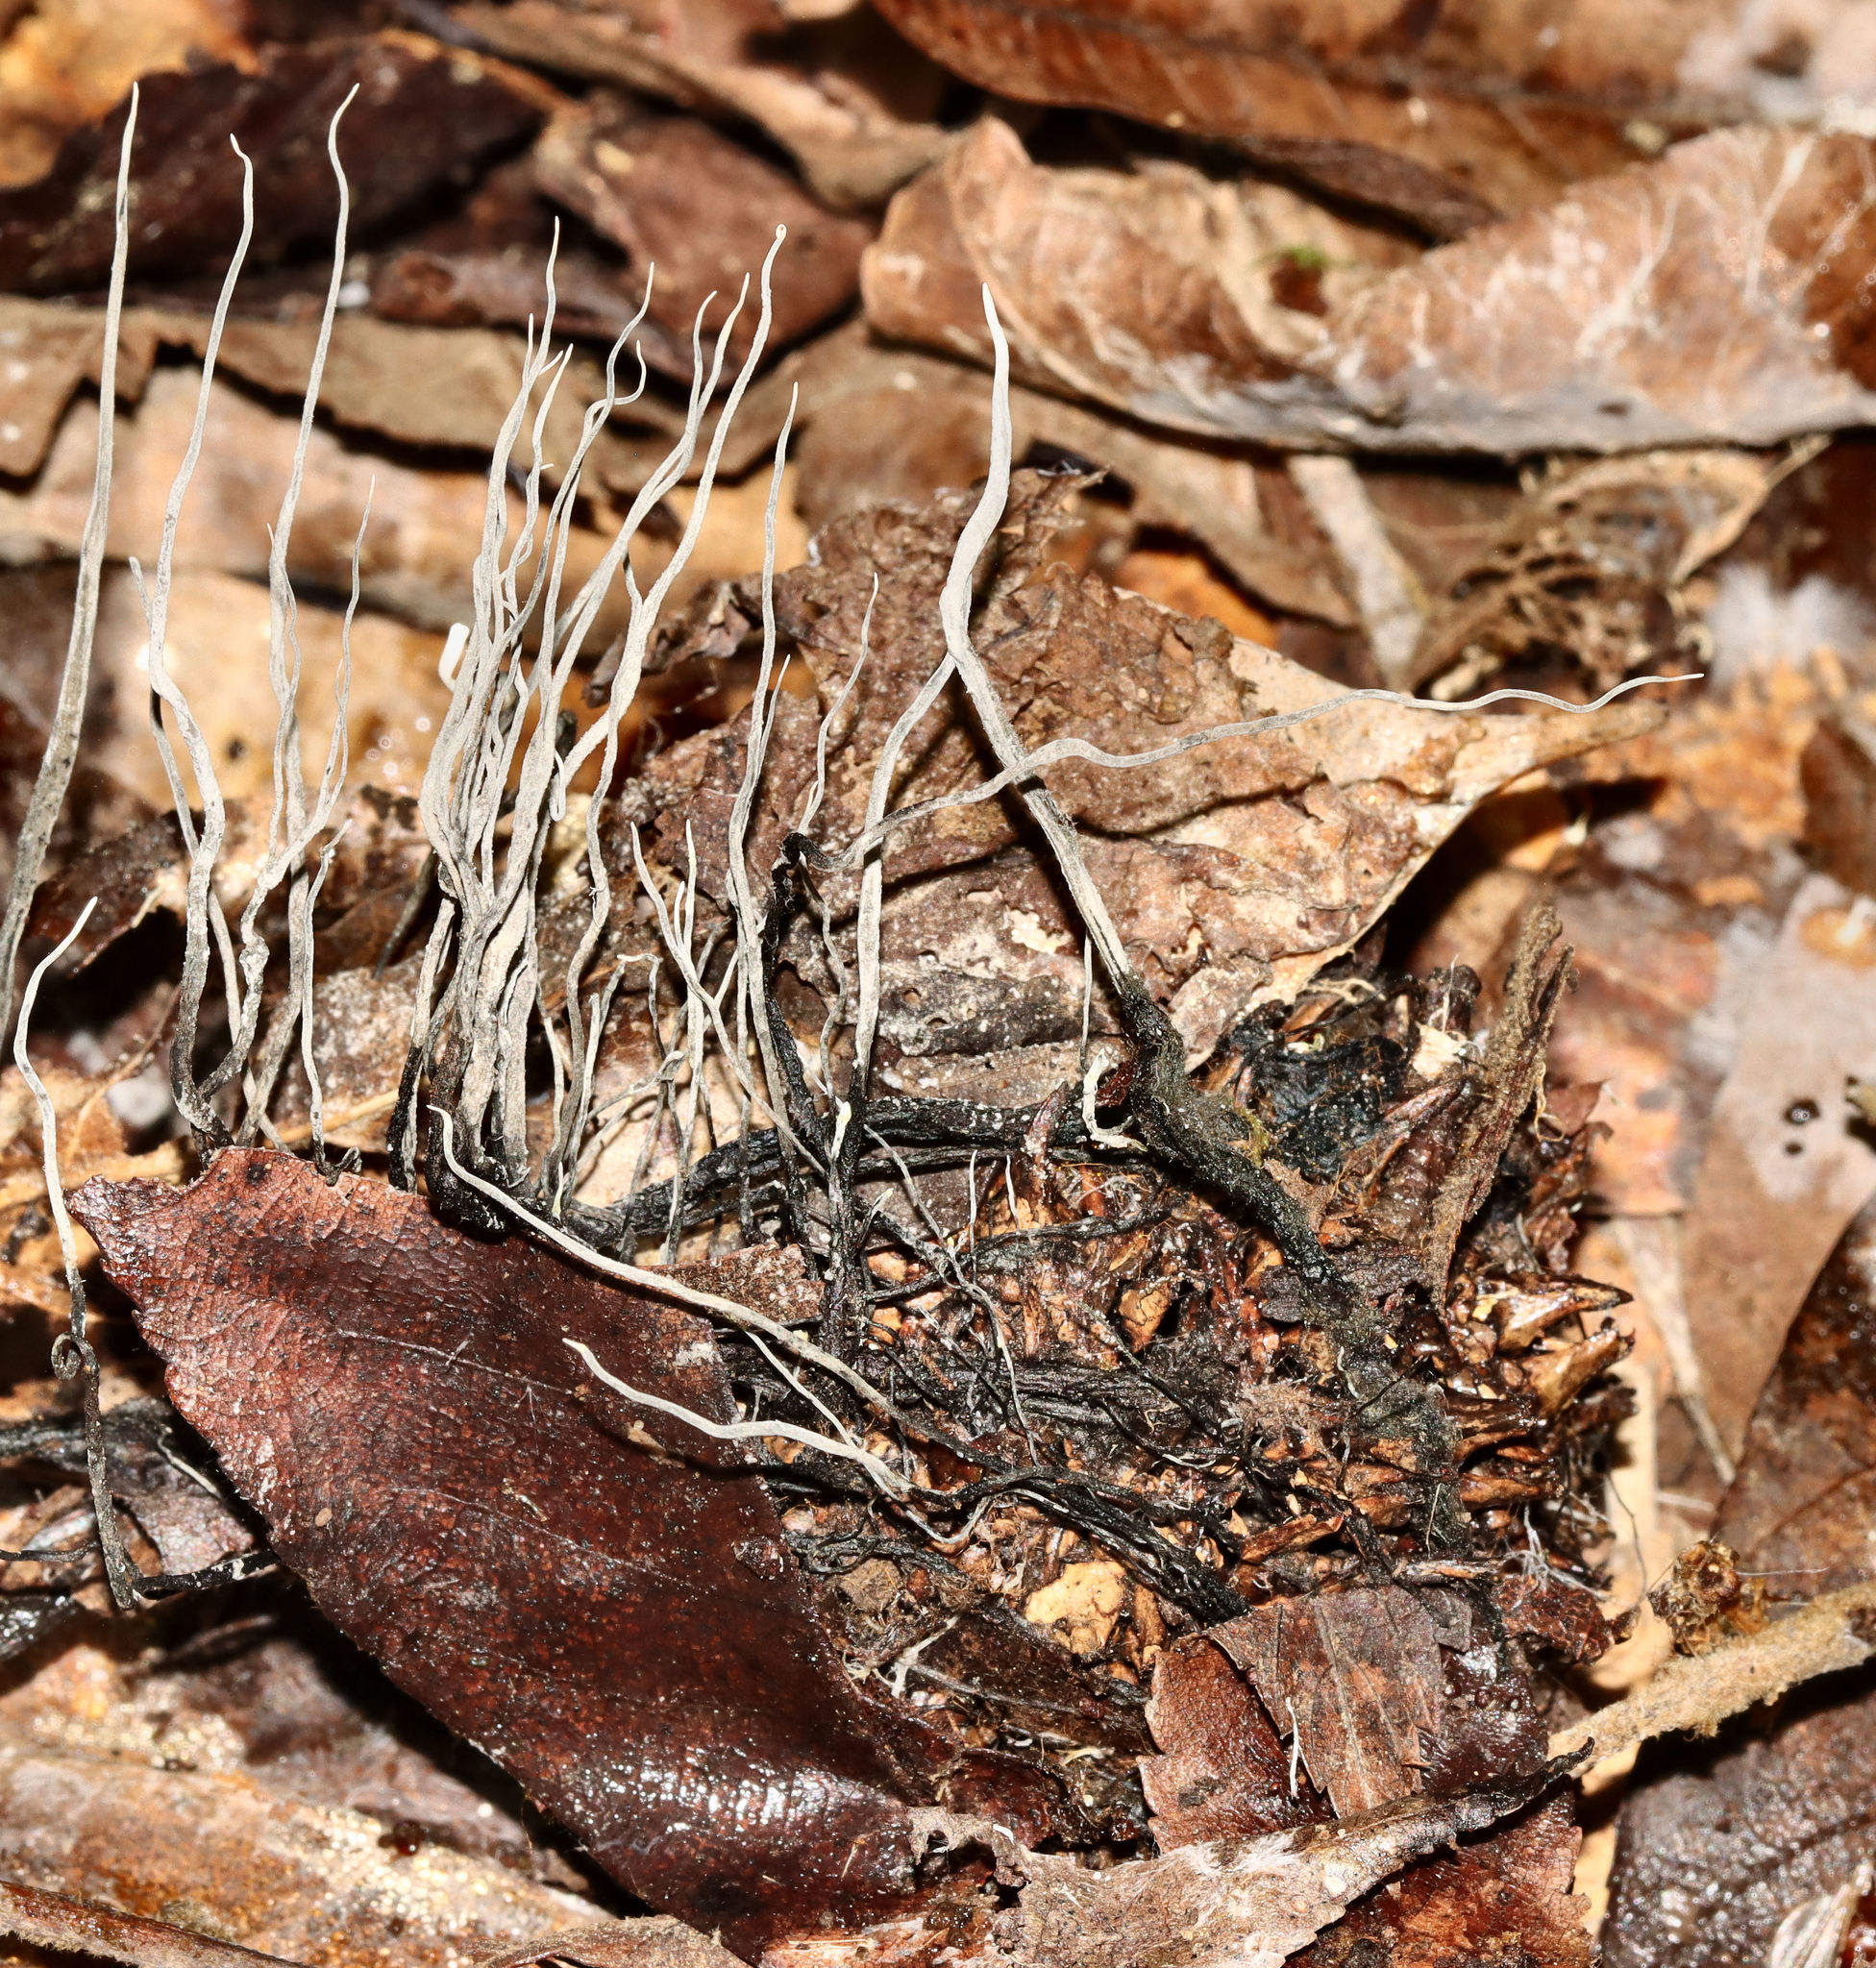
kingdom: Fungi
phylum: Ascomycota
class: Sordariomycetes
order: Xylariales
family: Xylariaceae
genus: Xylaria
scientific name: Xylaria liquidambaris
